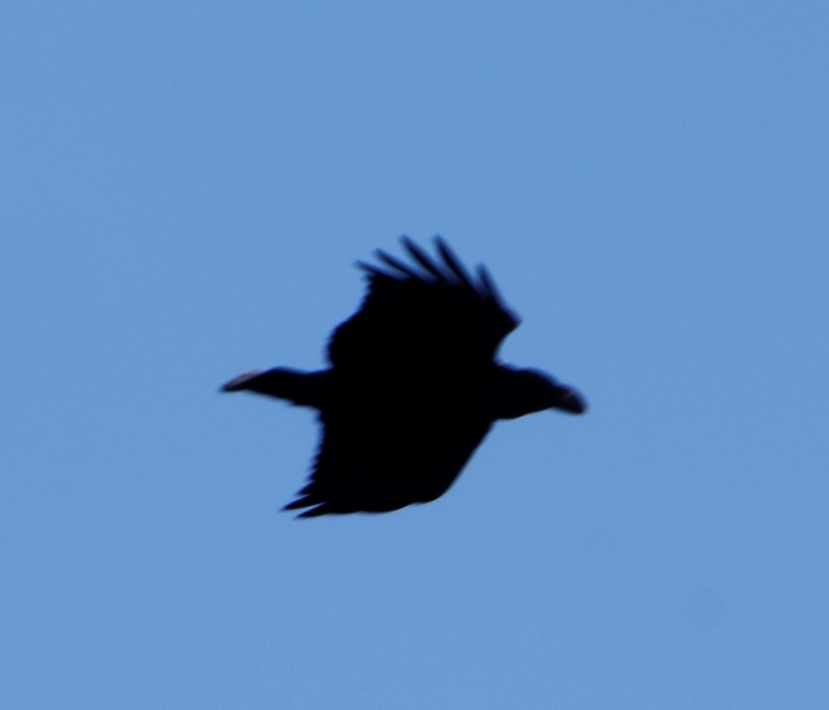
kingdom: Animalia
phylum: Chordata
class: Aves
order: Passeriformes
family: Corvidae
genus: Corvus
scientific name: Corvus albicollis
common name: White-necked raven
